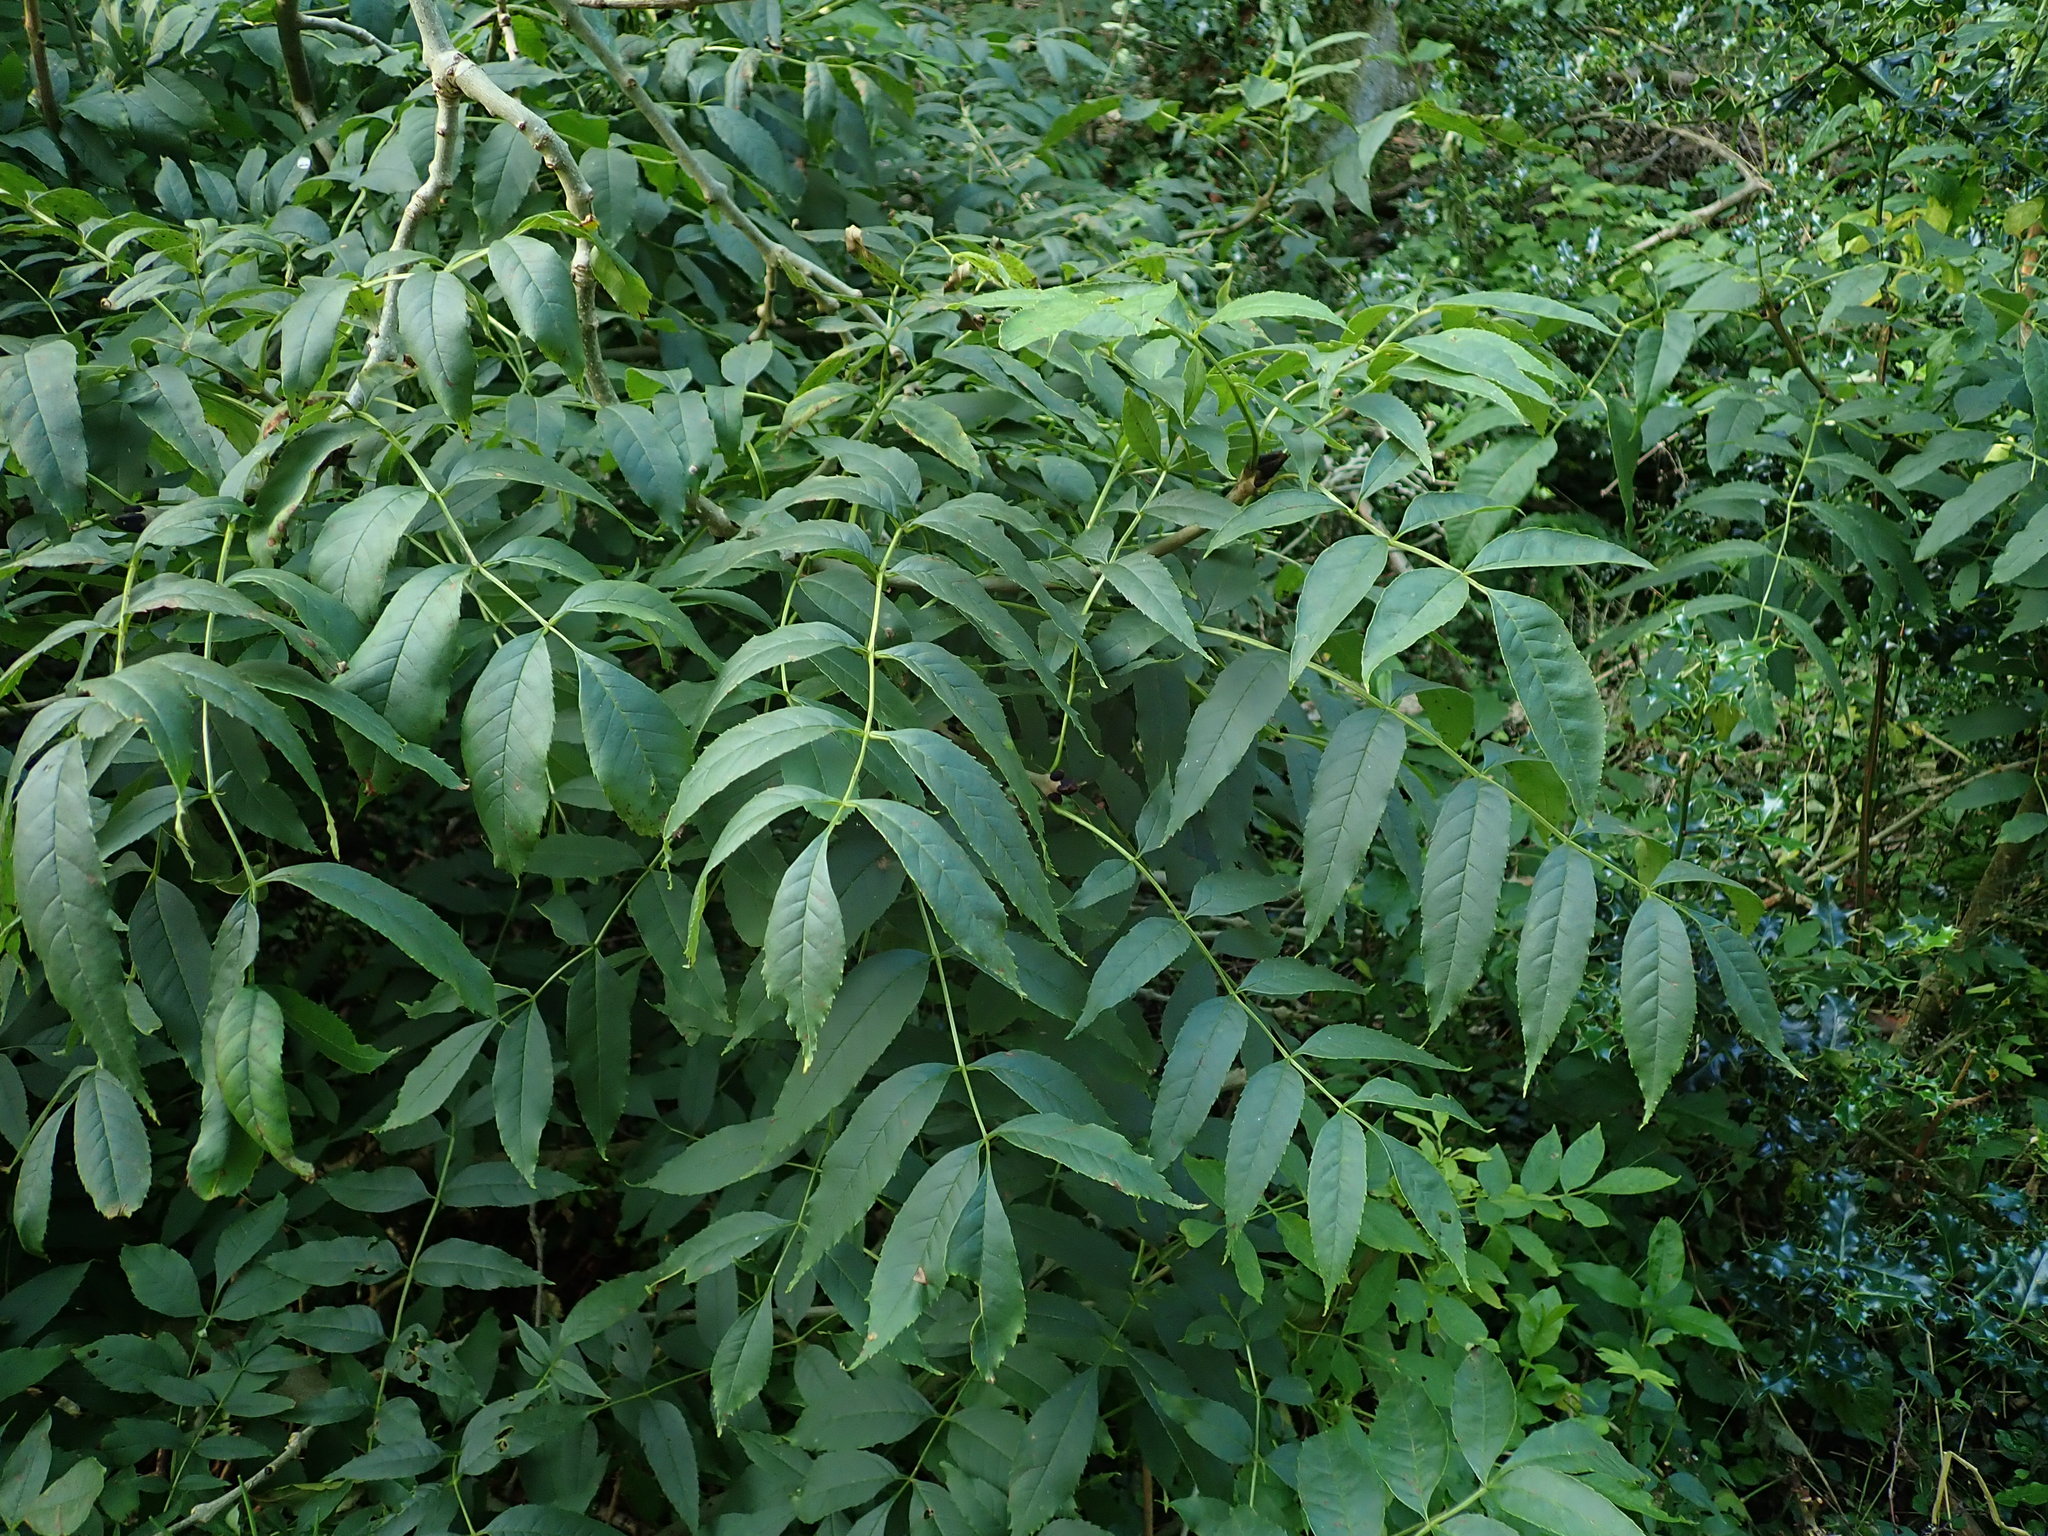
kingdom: Plantae
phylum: Tracheophyta
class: Magnoliopsida
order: Lamiales
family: Oleaceae
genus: Fraxinus
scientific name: Fraxinus excelsior
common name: European ash
